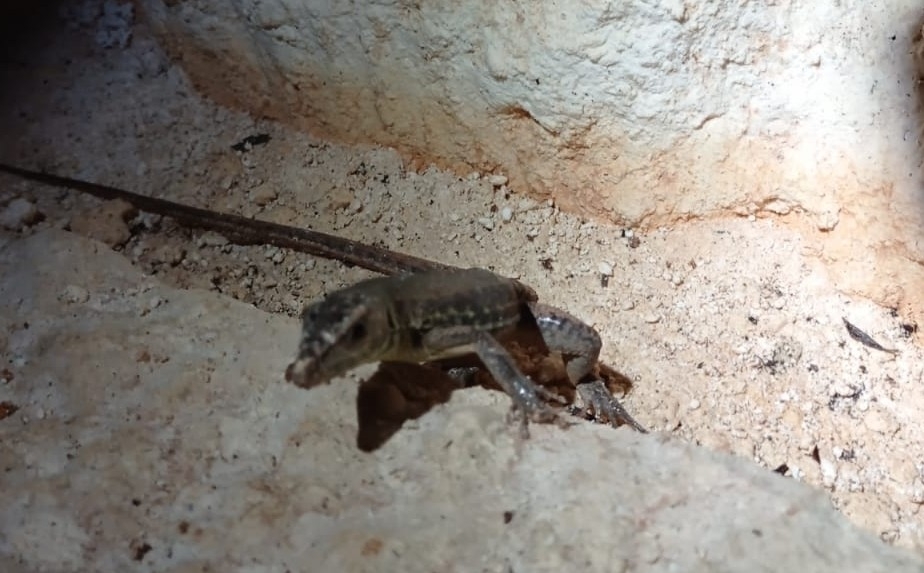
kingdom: Animalia
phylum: Chordata
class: Squamata
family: Teiidae
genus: Holcosus
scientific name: Holcosus undulatus
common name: Rainbow ameiva
